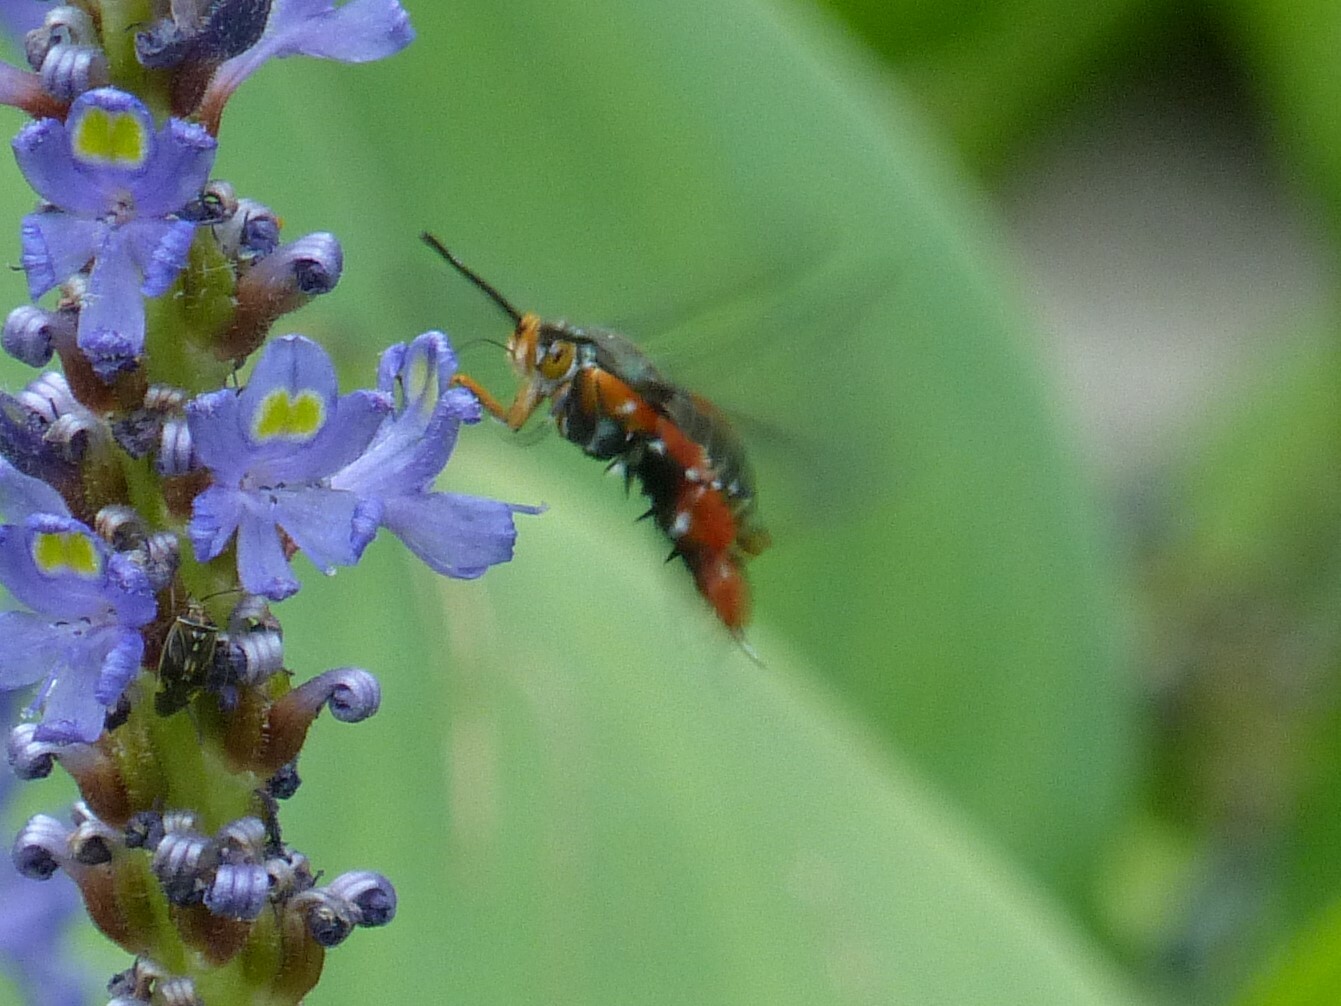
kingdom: Animalia
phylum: Arthropoda
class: Insecta
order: Lepidoptera
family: Sesiidae
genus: Eichlinia
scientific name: Eichlinia cucurbitae
